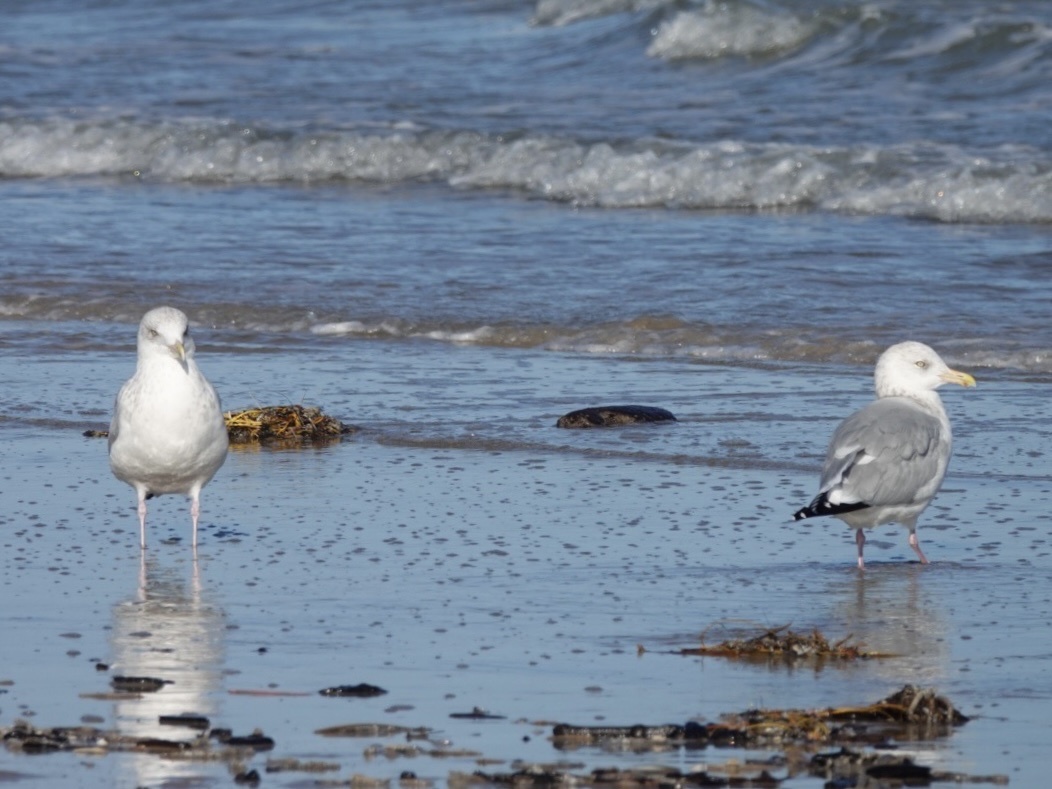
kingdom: Animalia
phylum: Chordata
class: Aves
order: Charadriiformes
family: Laridae
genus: Larus
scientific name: Larus argentatus
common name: Herring gull
